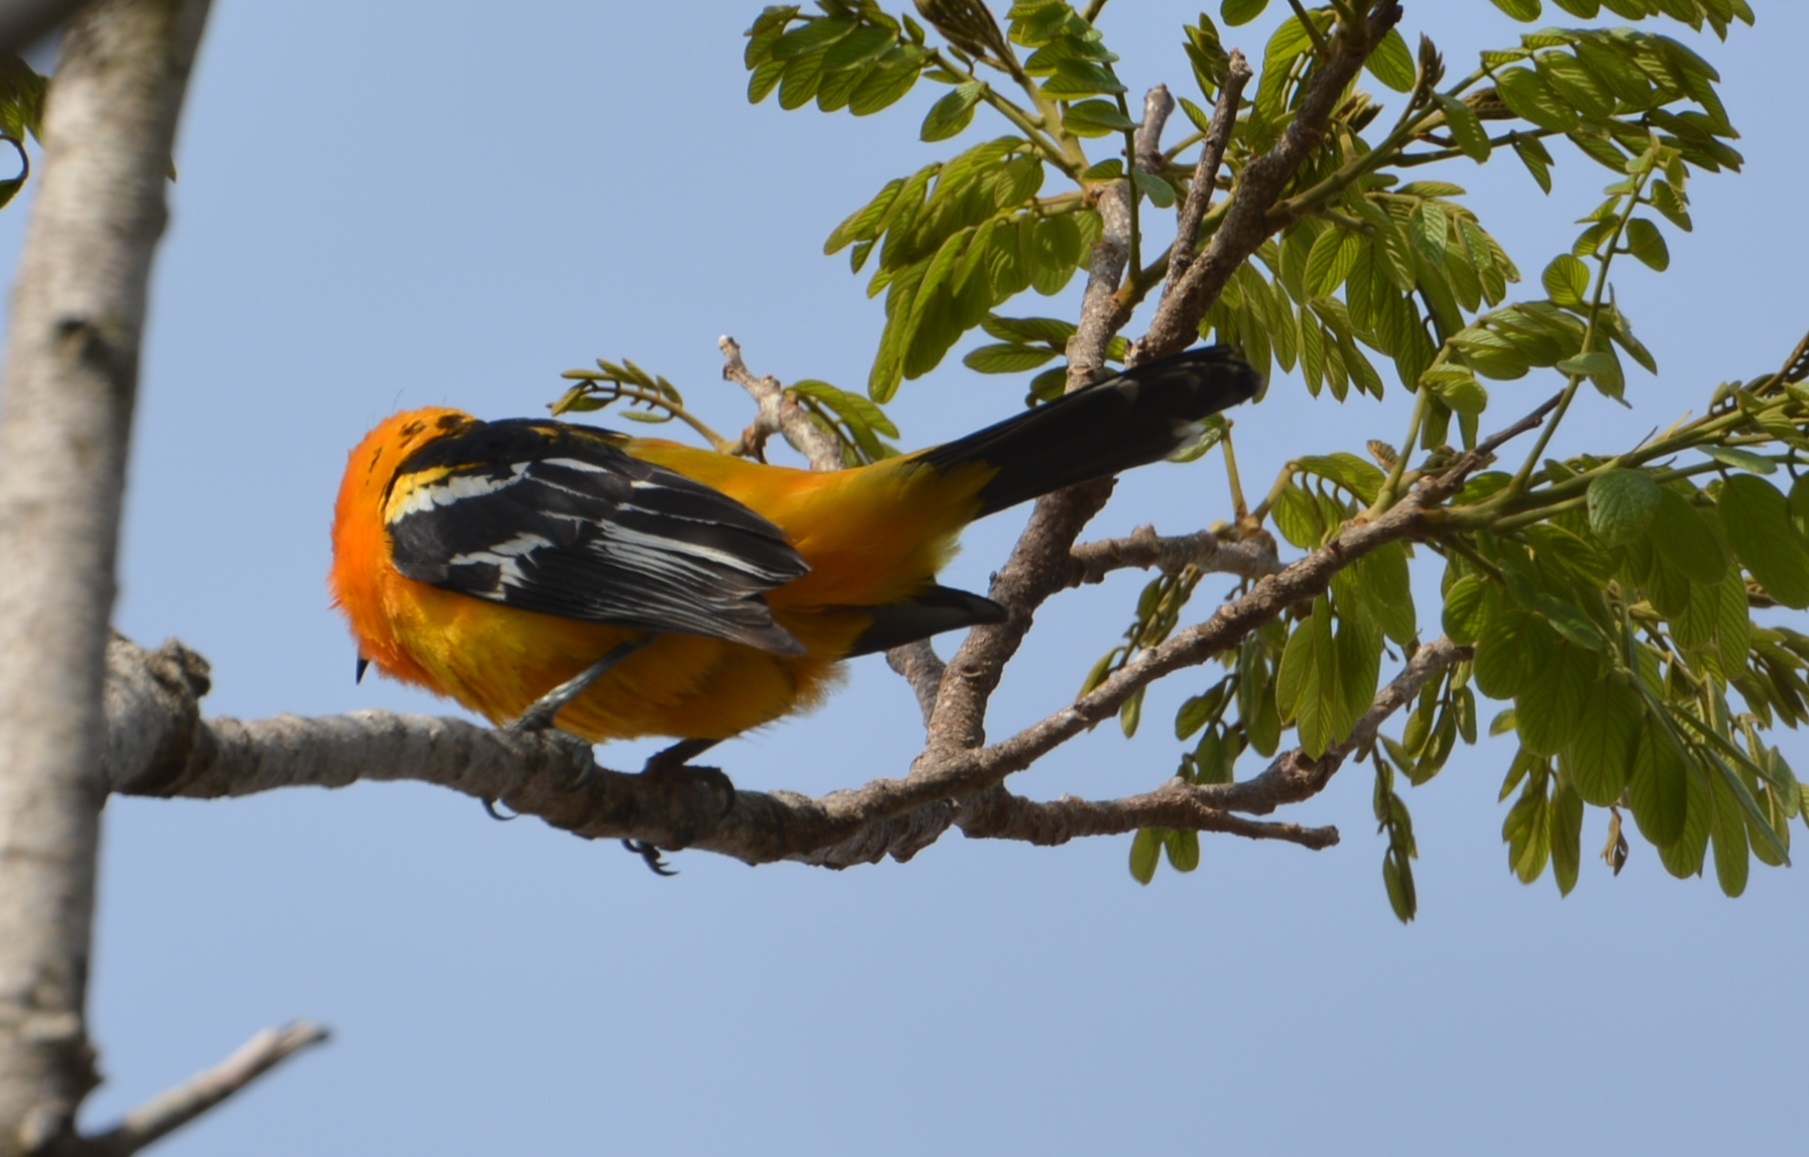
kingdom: Animalia
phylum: Chordata
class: Aves
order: Passeriformes
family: Icteridae
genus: Icterus
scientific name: Icterus pustulatus
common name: Streak-backed oriole
